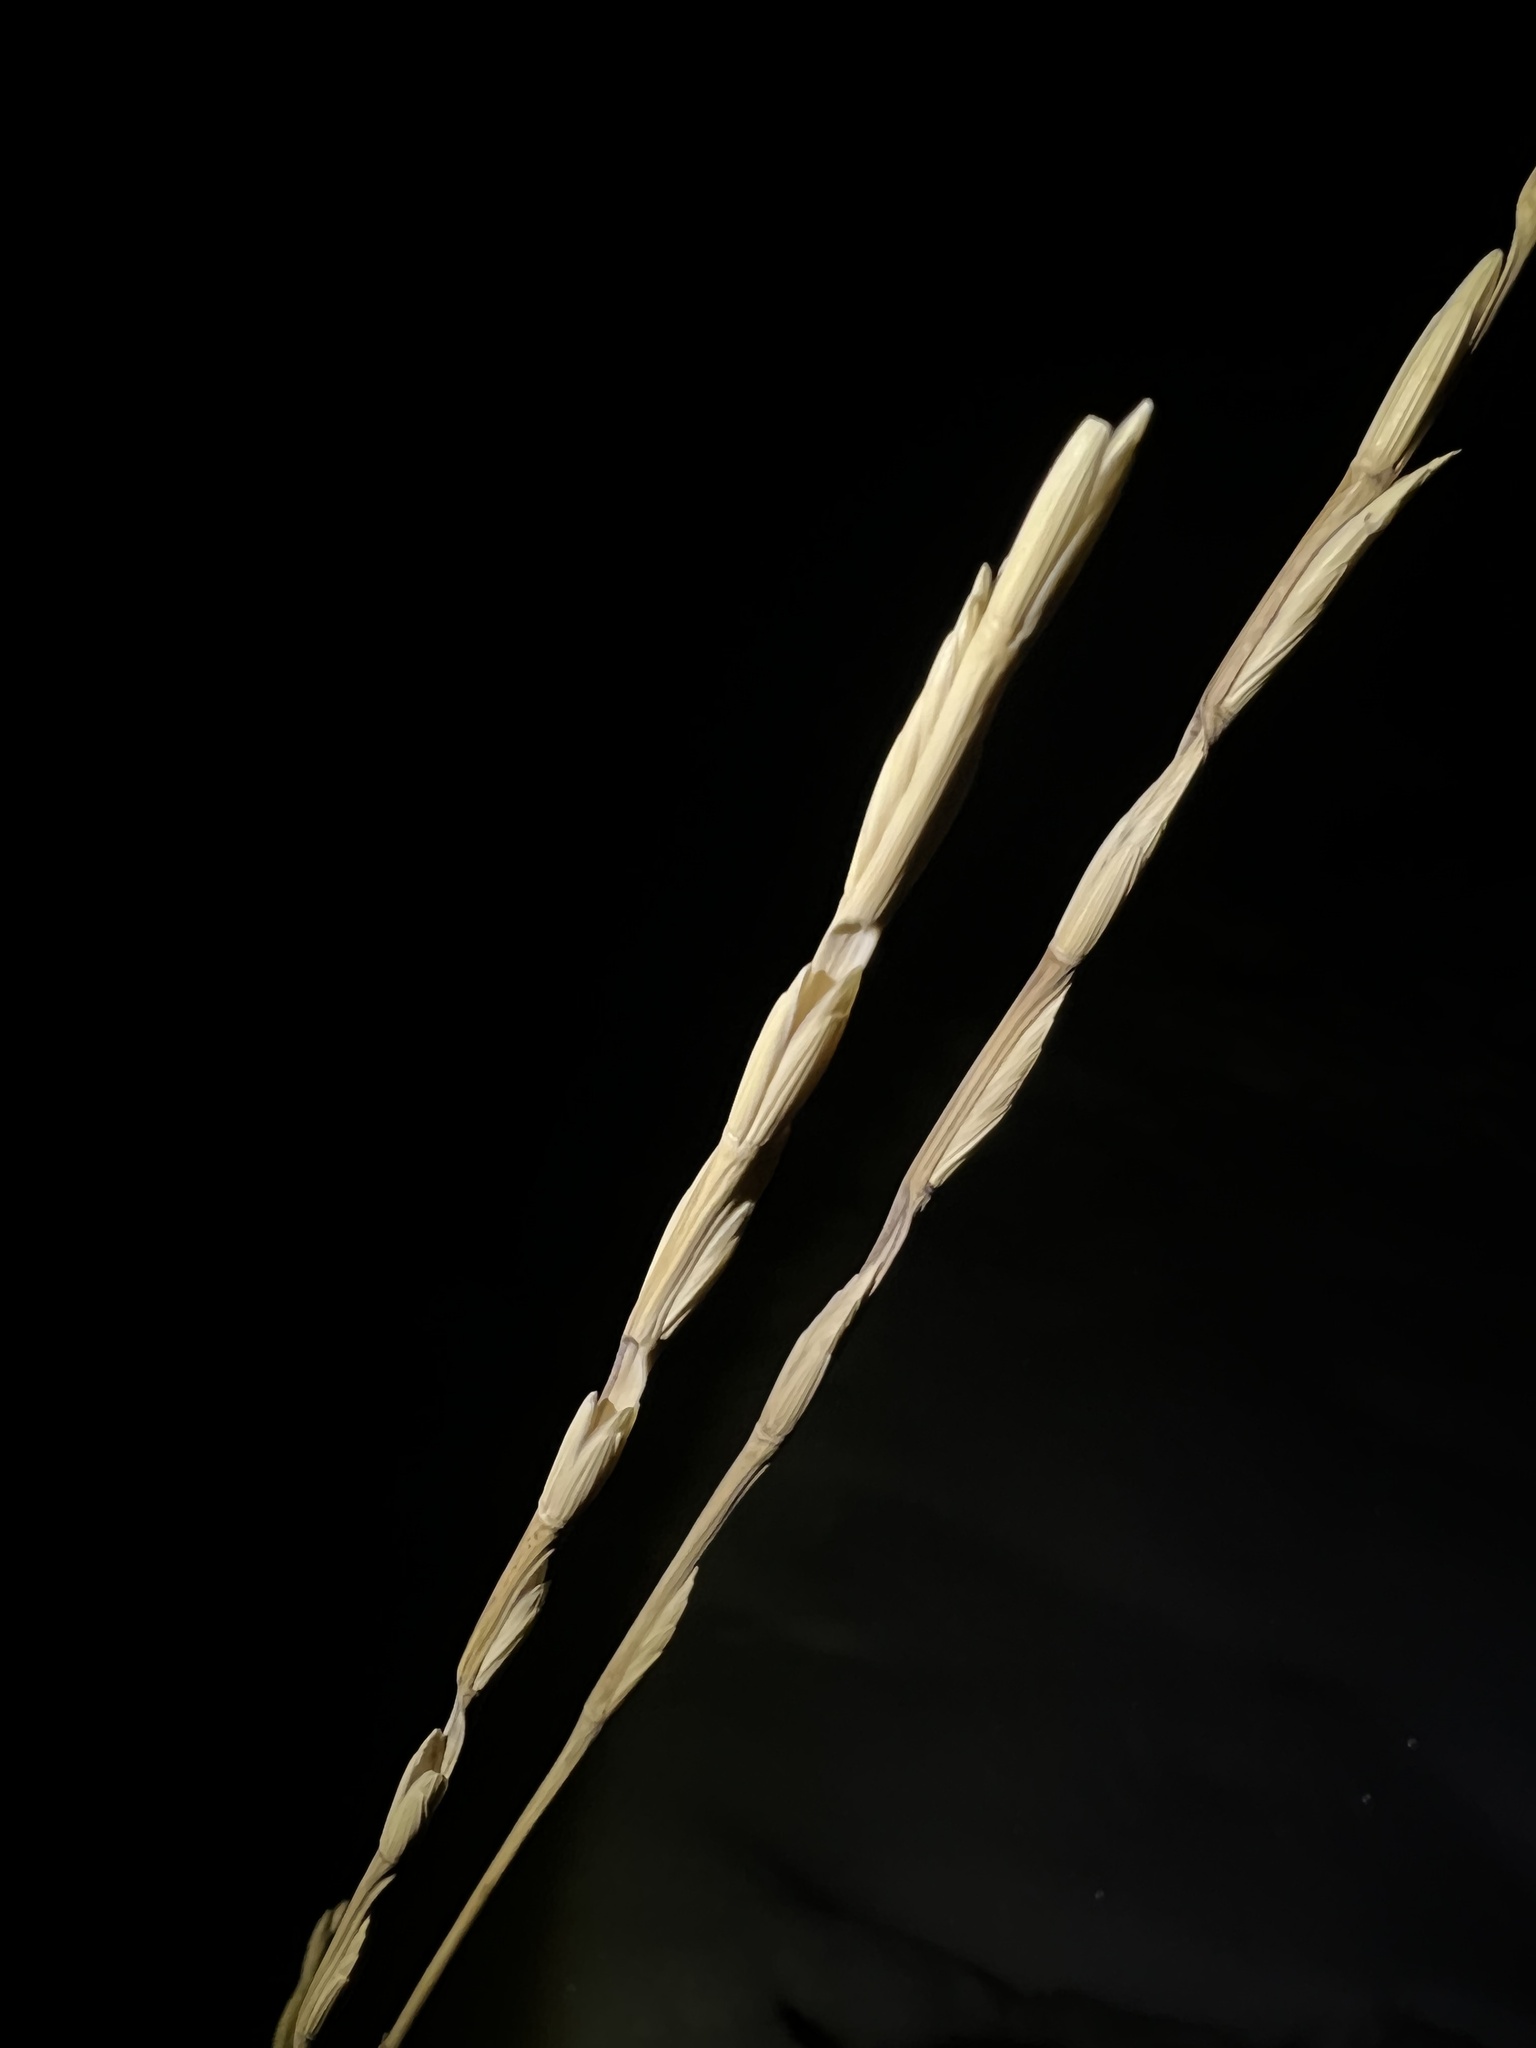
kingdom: Plantae
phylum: Tracheophyta
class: Liliopsida
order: Poales
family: Poaceae
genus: Thinopyrum
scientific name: Thinopyrum intermedium
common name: Intermediate wheatgrass
